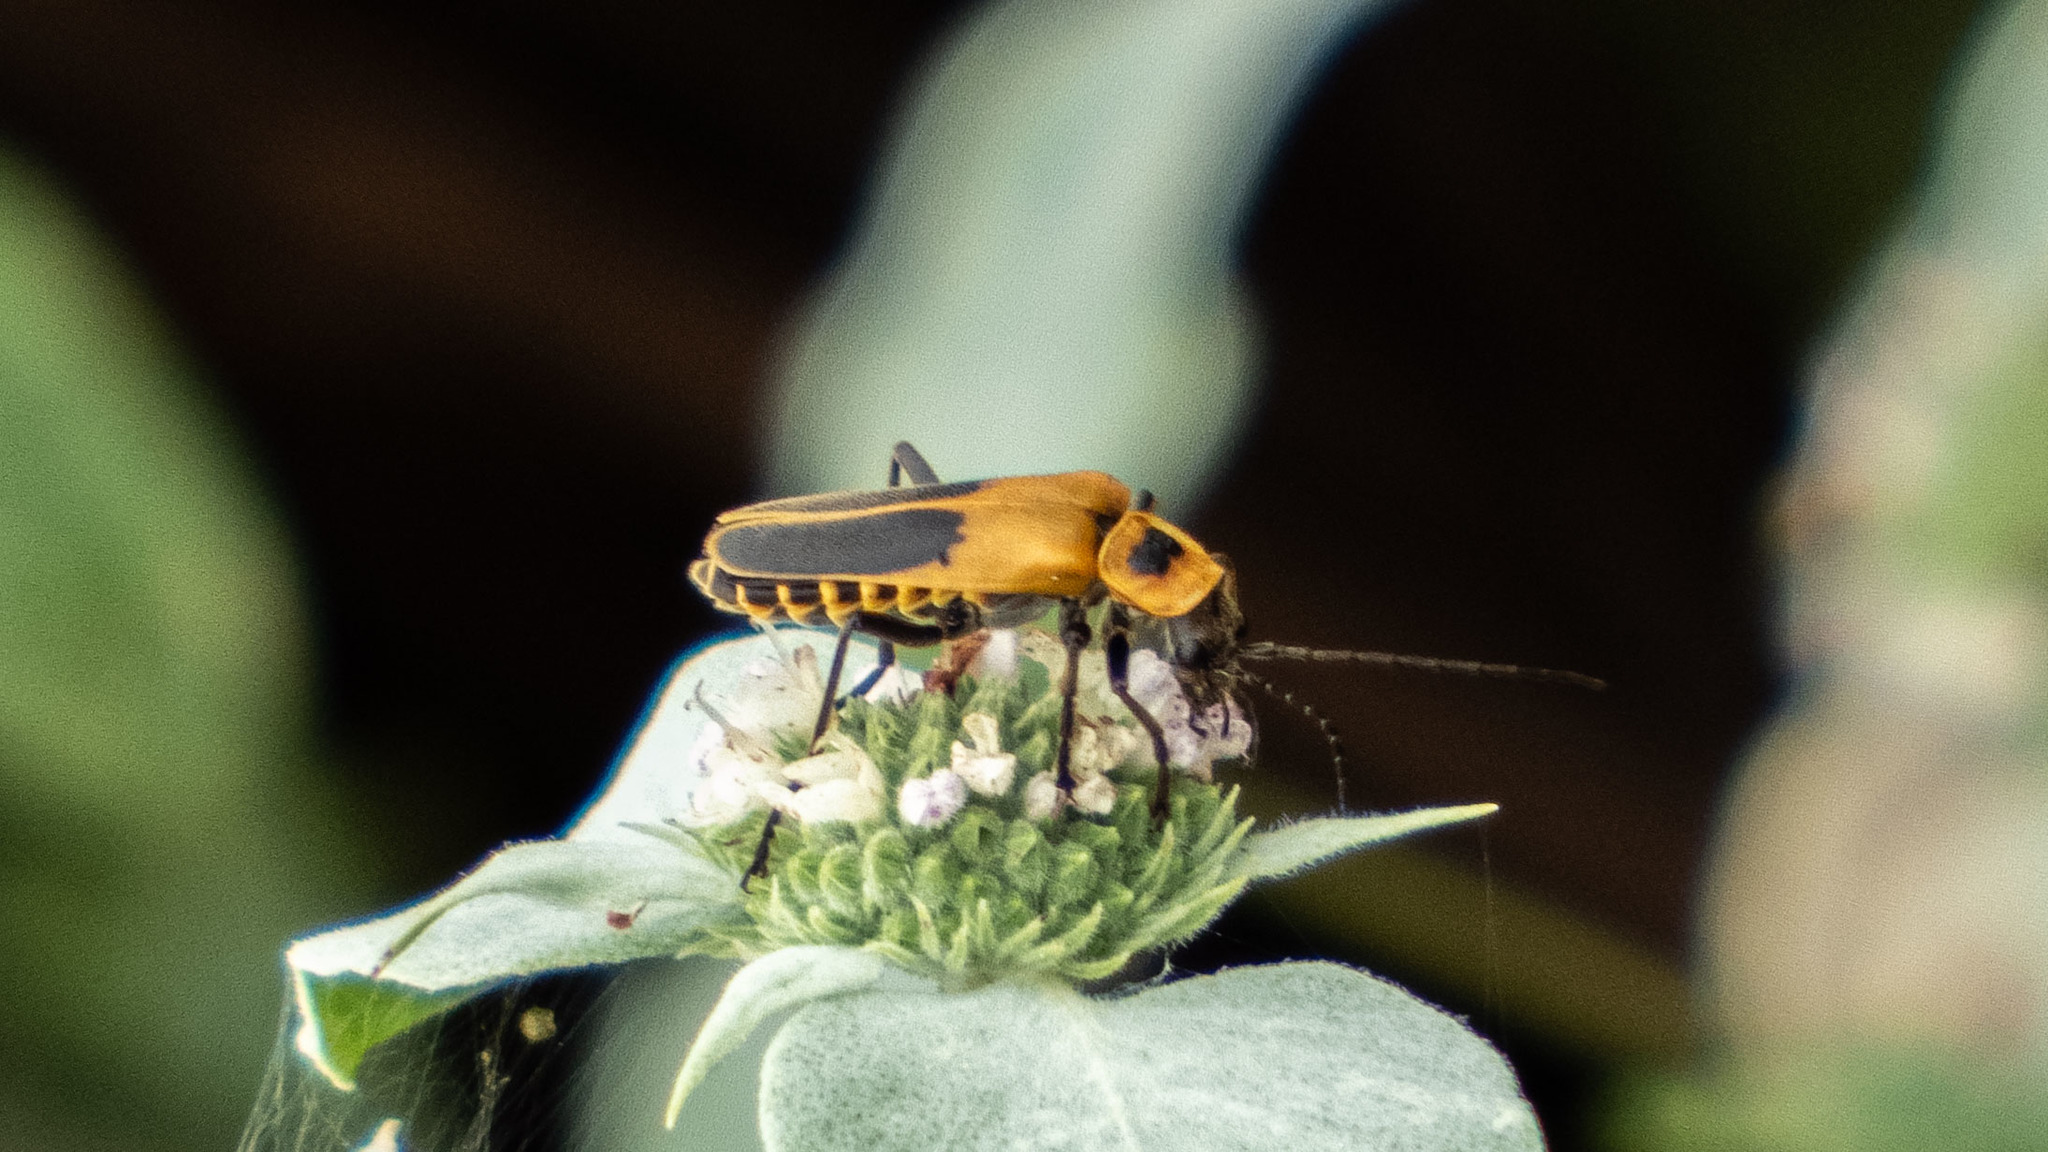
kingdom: Animalia
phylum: Arthropoda
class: Insecta
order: Coleoptera
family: Cantharidae
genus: Chauliognathus
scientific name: Chauliognathus pensylvanicus
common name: Goldenrod soldier beetle
